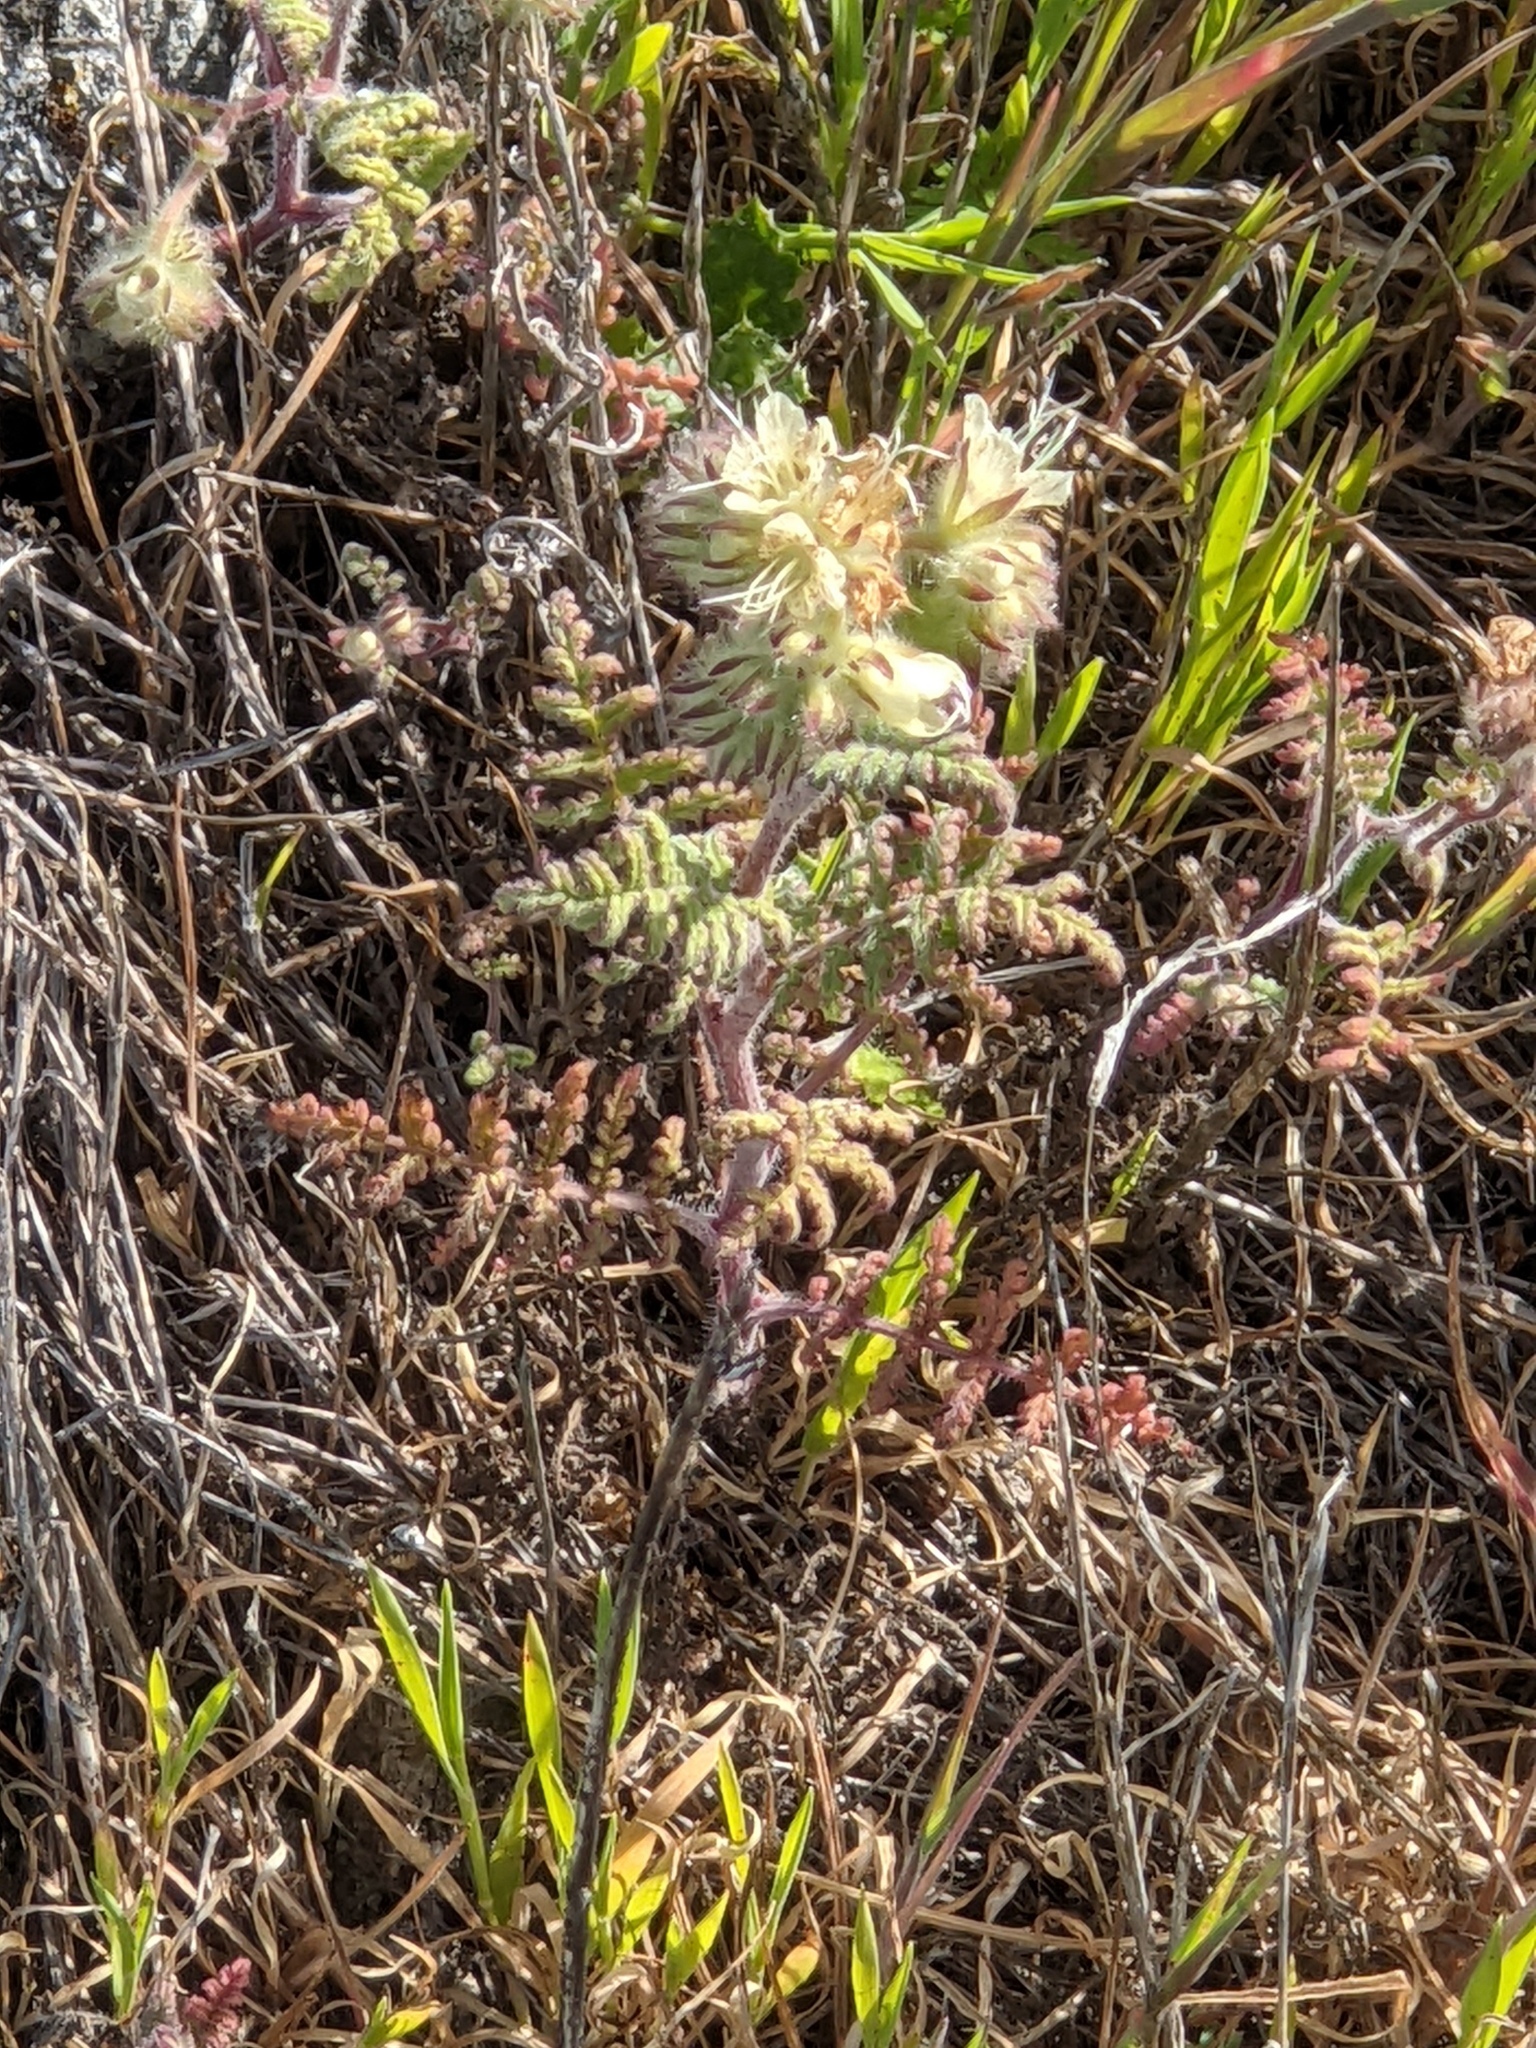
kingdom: Plantae
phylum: Tracheophyta
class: Magnoliopsida
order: Boraginales
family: Hydrophyllaceae
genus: Phacelia
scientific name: Phacelia distans
